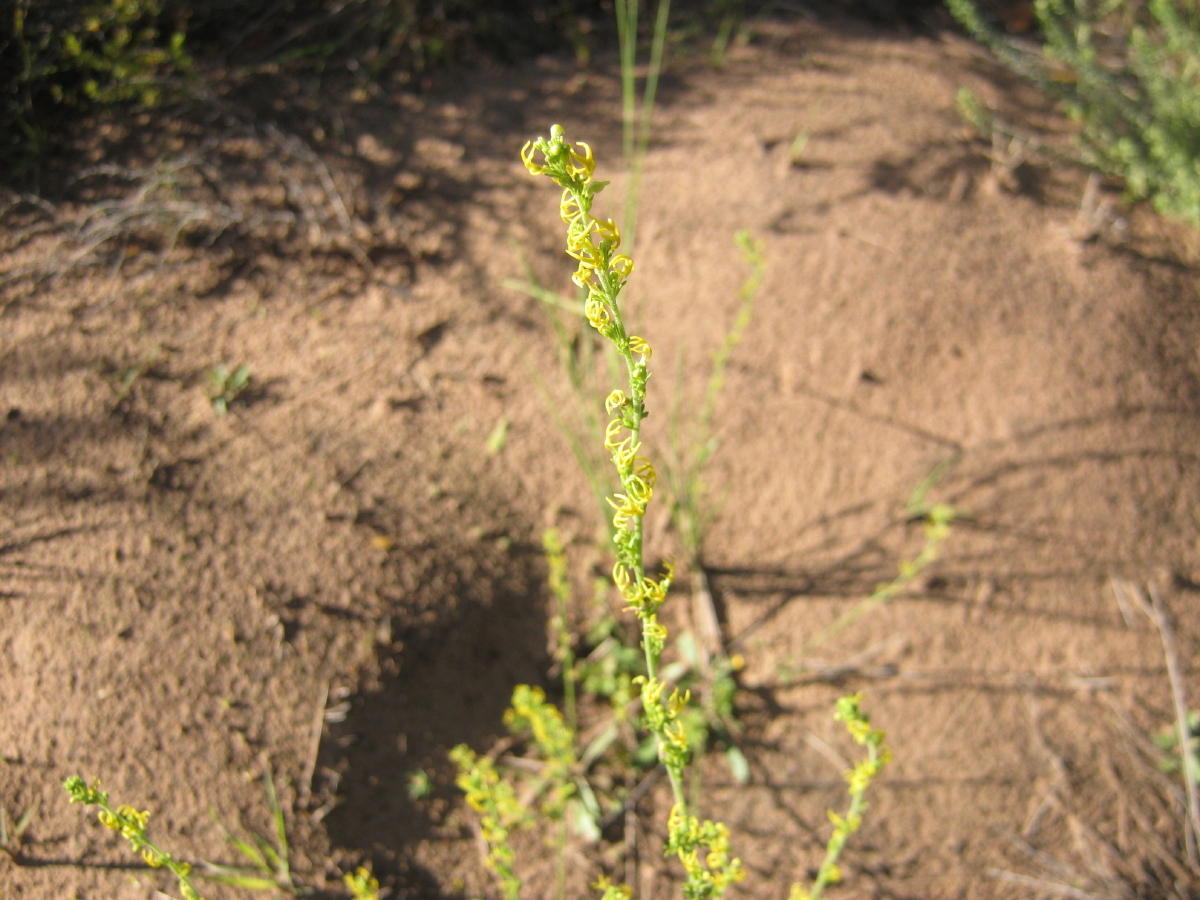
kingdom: Plantae
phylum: Tracheophyta
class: Magnoliopsida
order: Lamiales
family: Scrophulariaceae
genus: Manulea
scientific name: Manulea obovata
